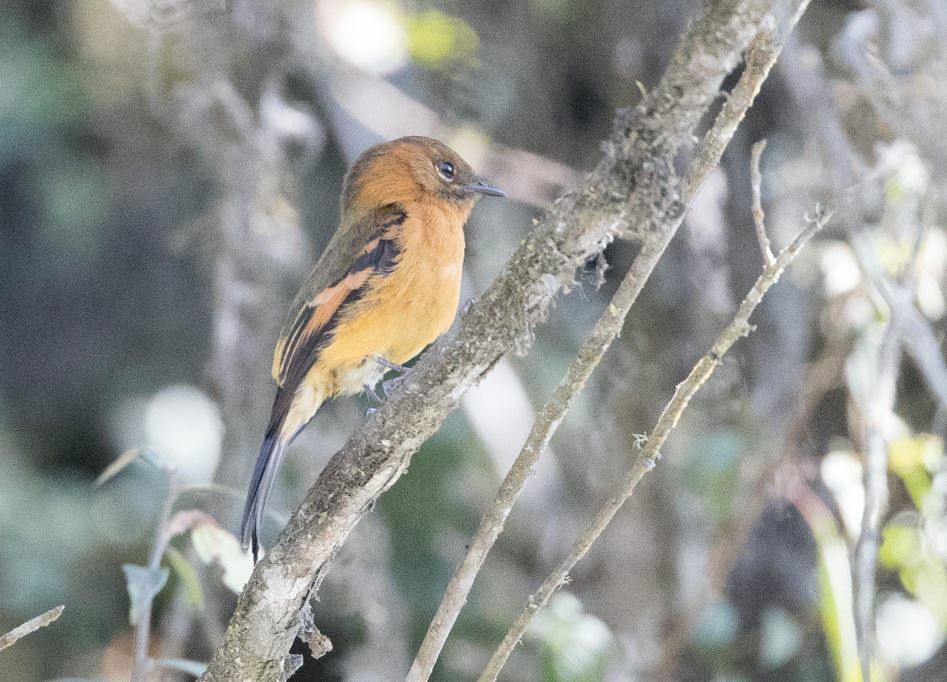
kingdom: Animalia
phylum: Chordata
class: Aves
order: Passeriformes
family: Tyrannidae
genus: Pyrrhomyias
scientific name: Pyrrhomyias cinnamomeus
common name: Cinnamon flycatcher
